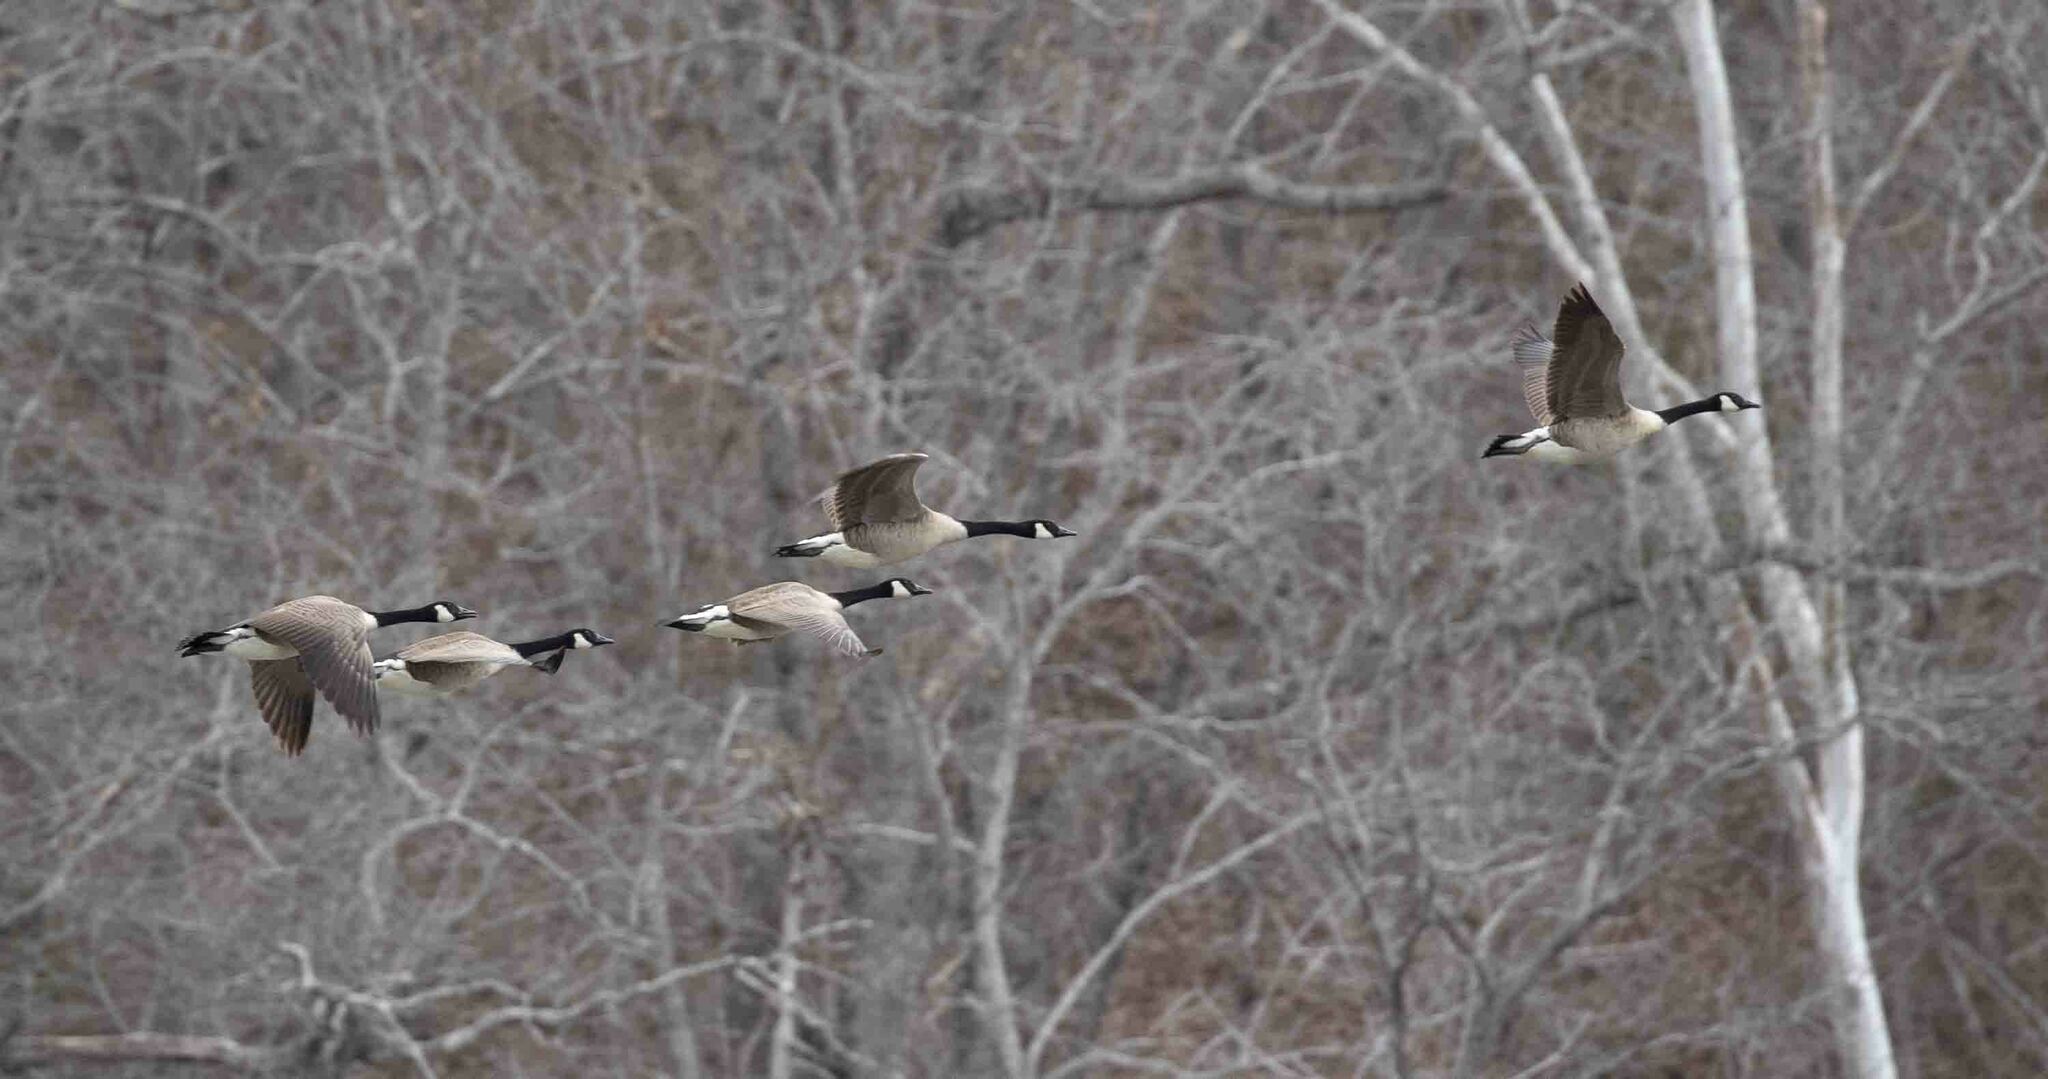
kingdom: Animalia
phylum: Chordata
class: Aves
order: Anseriformes
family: Anatidae
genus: Branta
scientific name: Branta canadensis
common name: Canada goose
